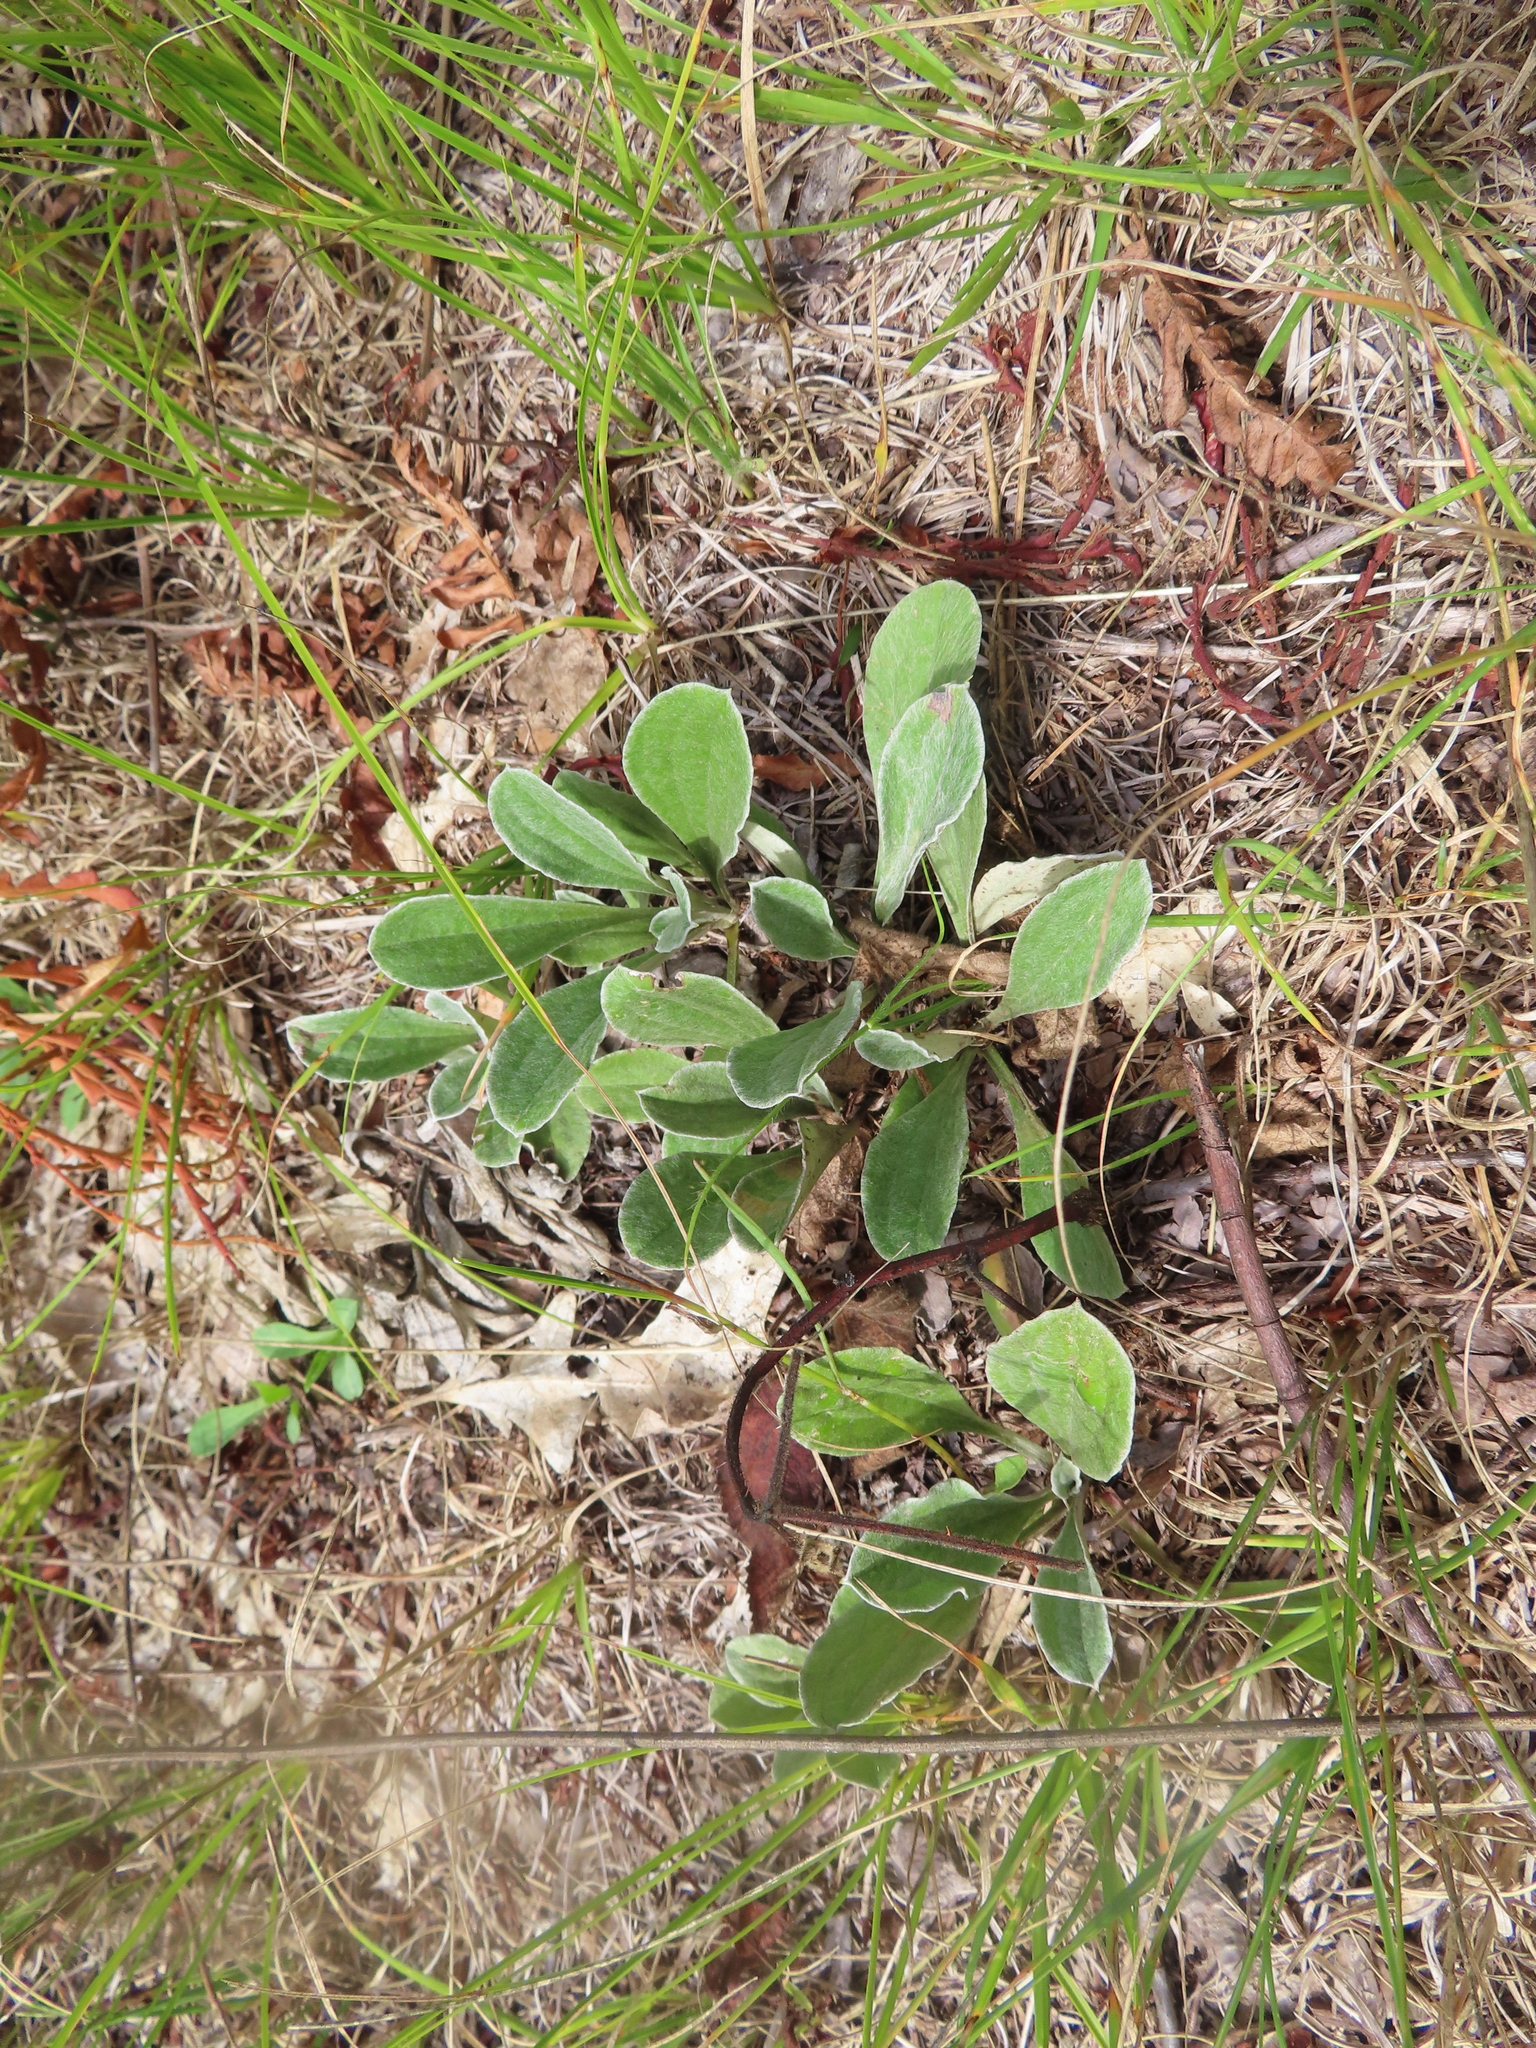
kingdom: Plantae
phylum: Tracheophyta
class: Magnoliopsida
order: Asterales
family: Asteraceae
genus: Antennaria
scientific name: Antennaria parlinii
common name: Parlin's pussytoes
